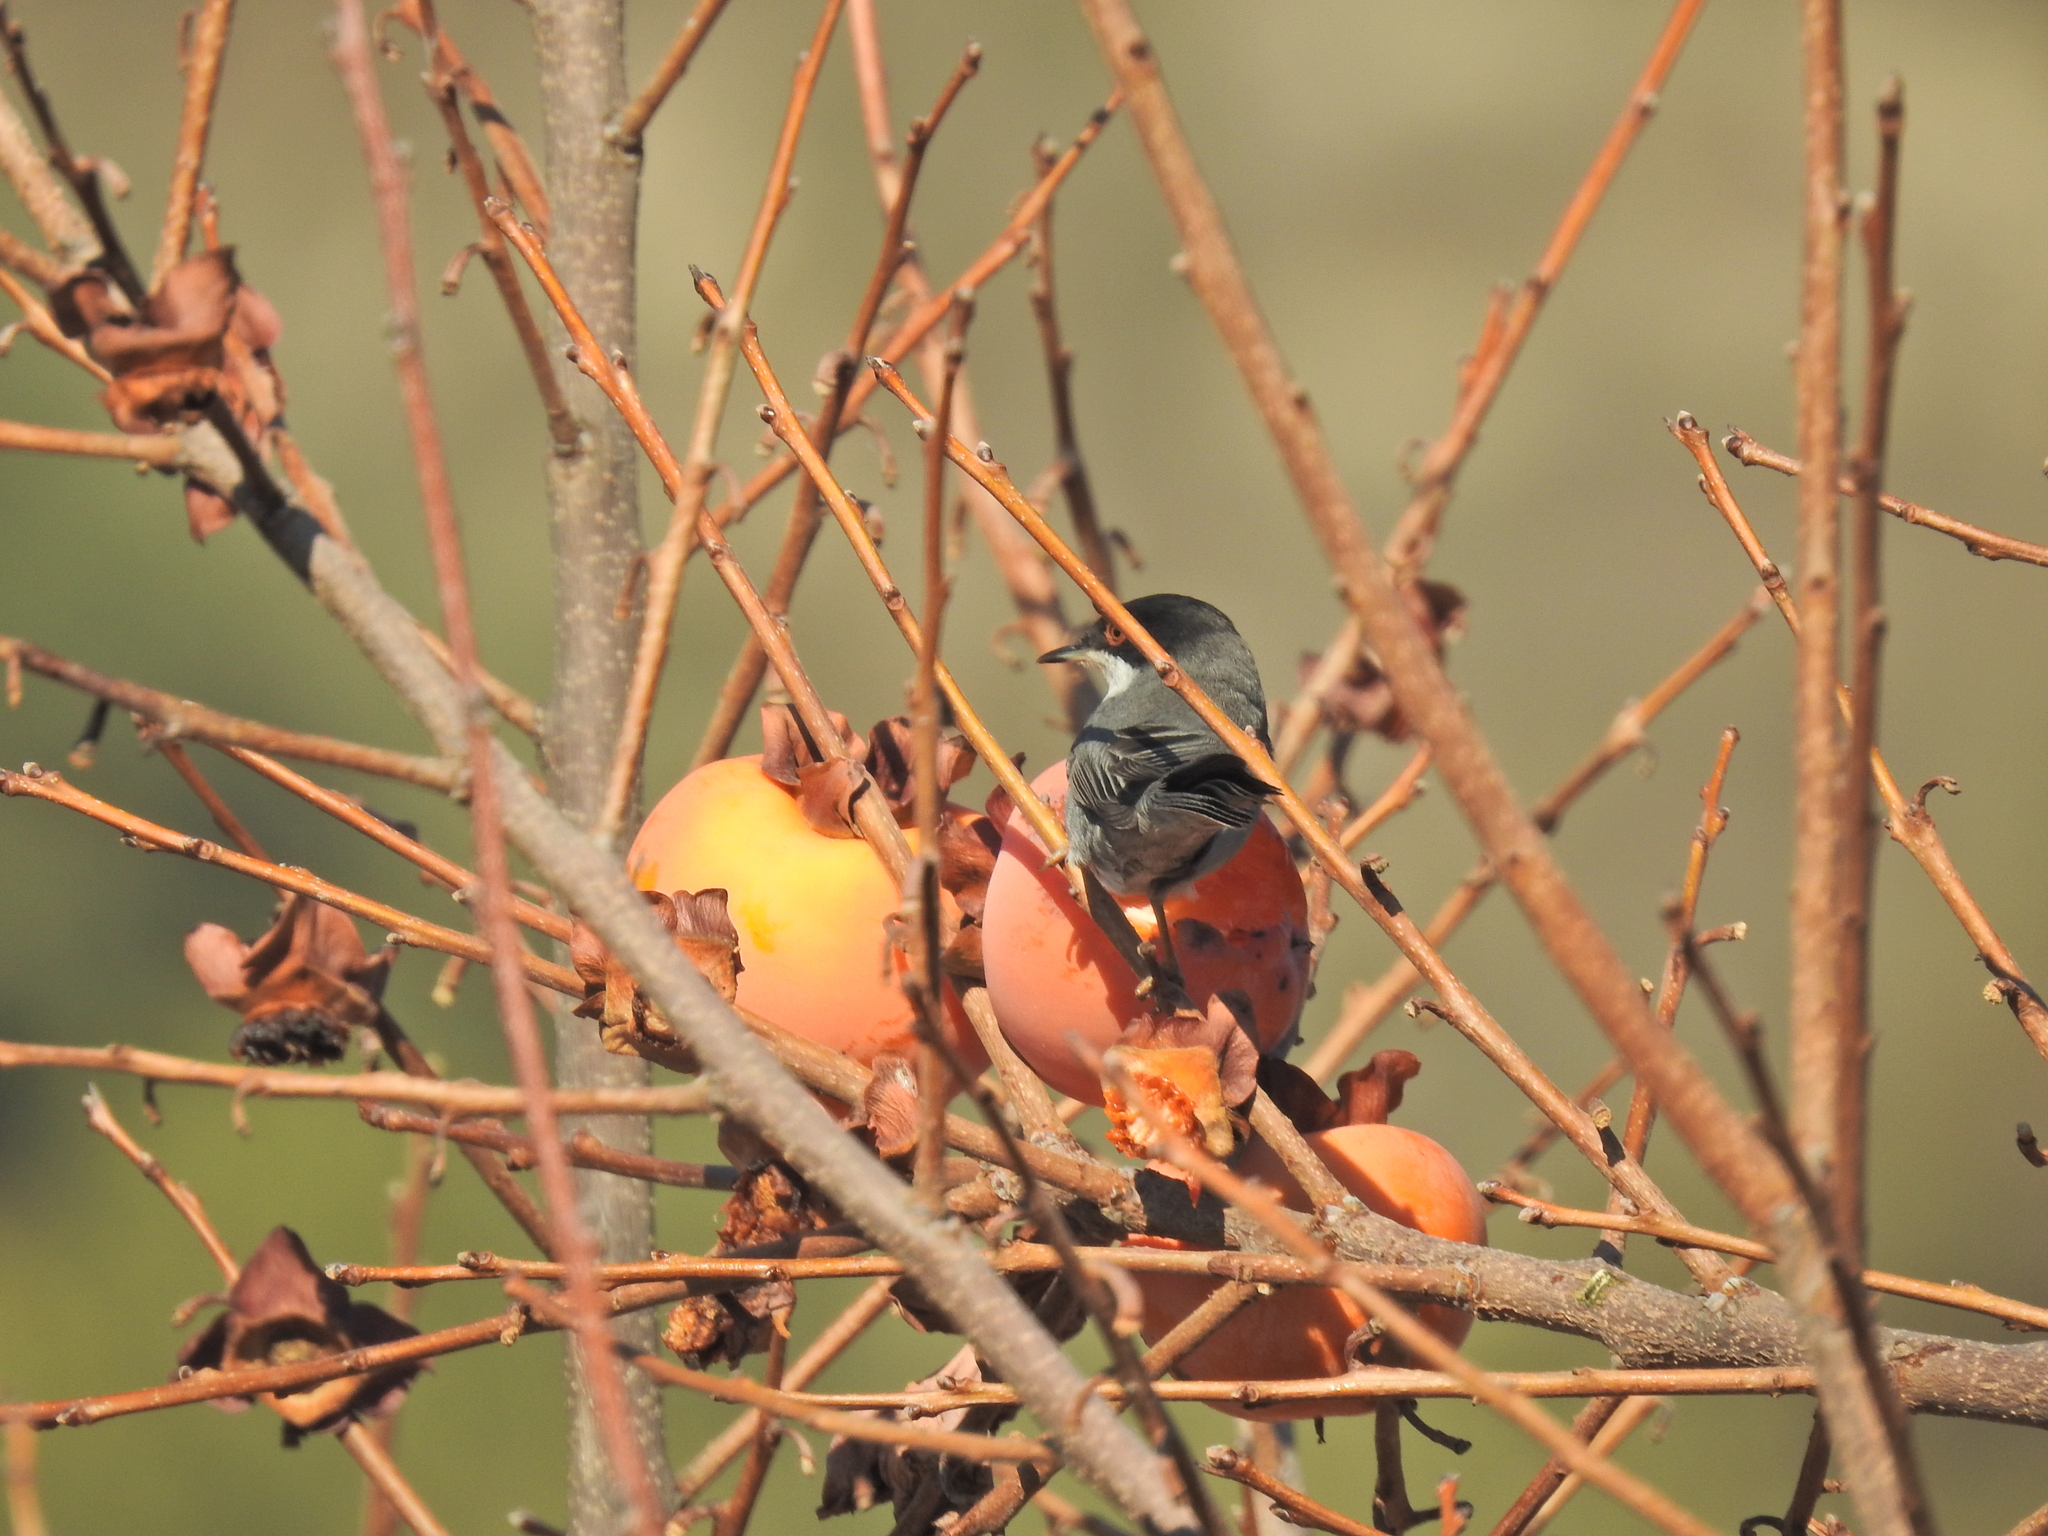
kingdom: Animalia
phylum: Chordata
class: Aves
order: Passeriformes
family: Sylviidae
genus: Curruca
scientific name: Curruca melanocephala
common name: Sardinian warbler
